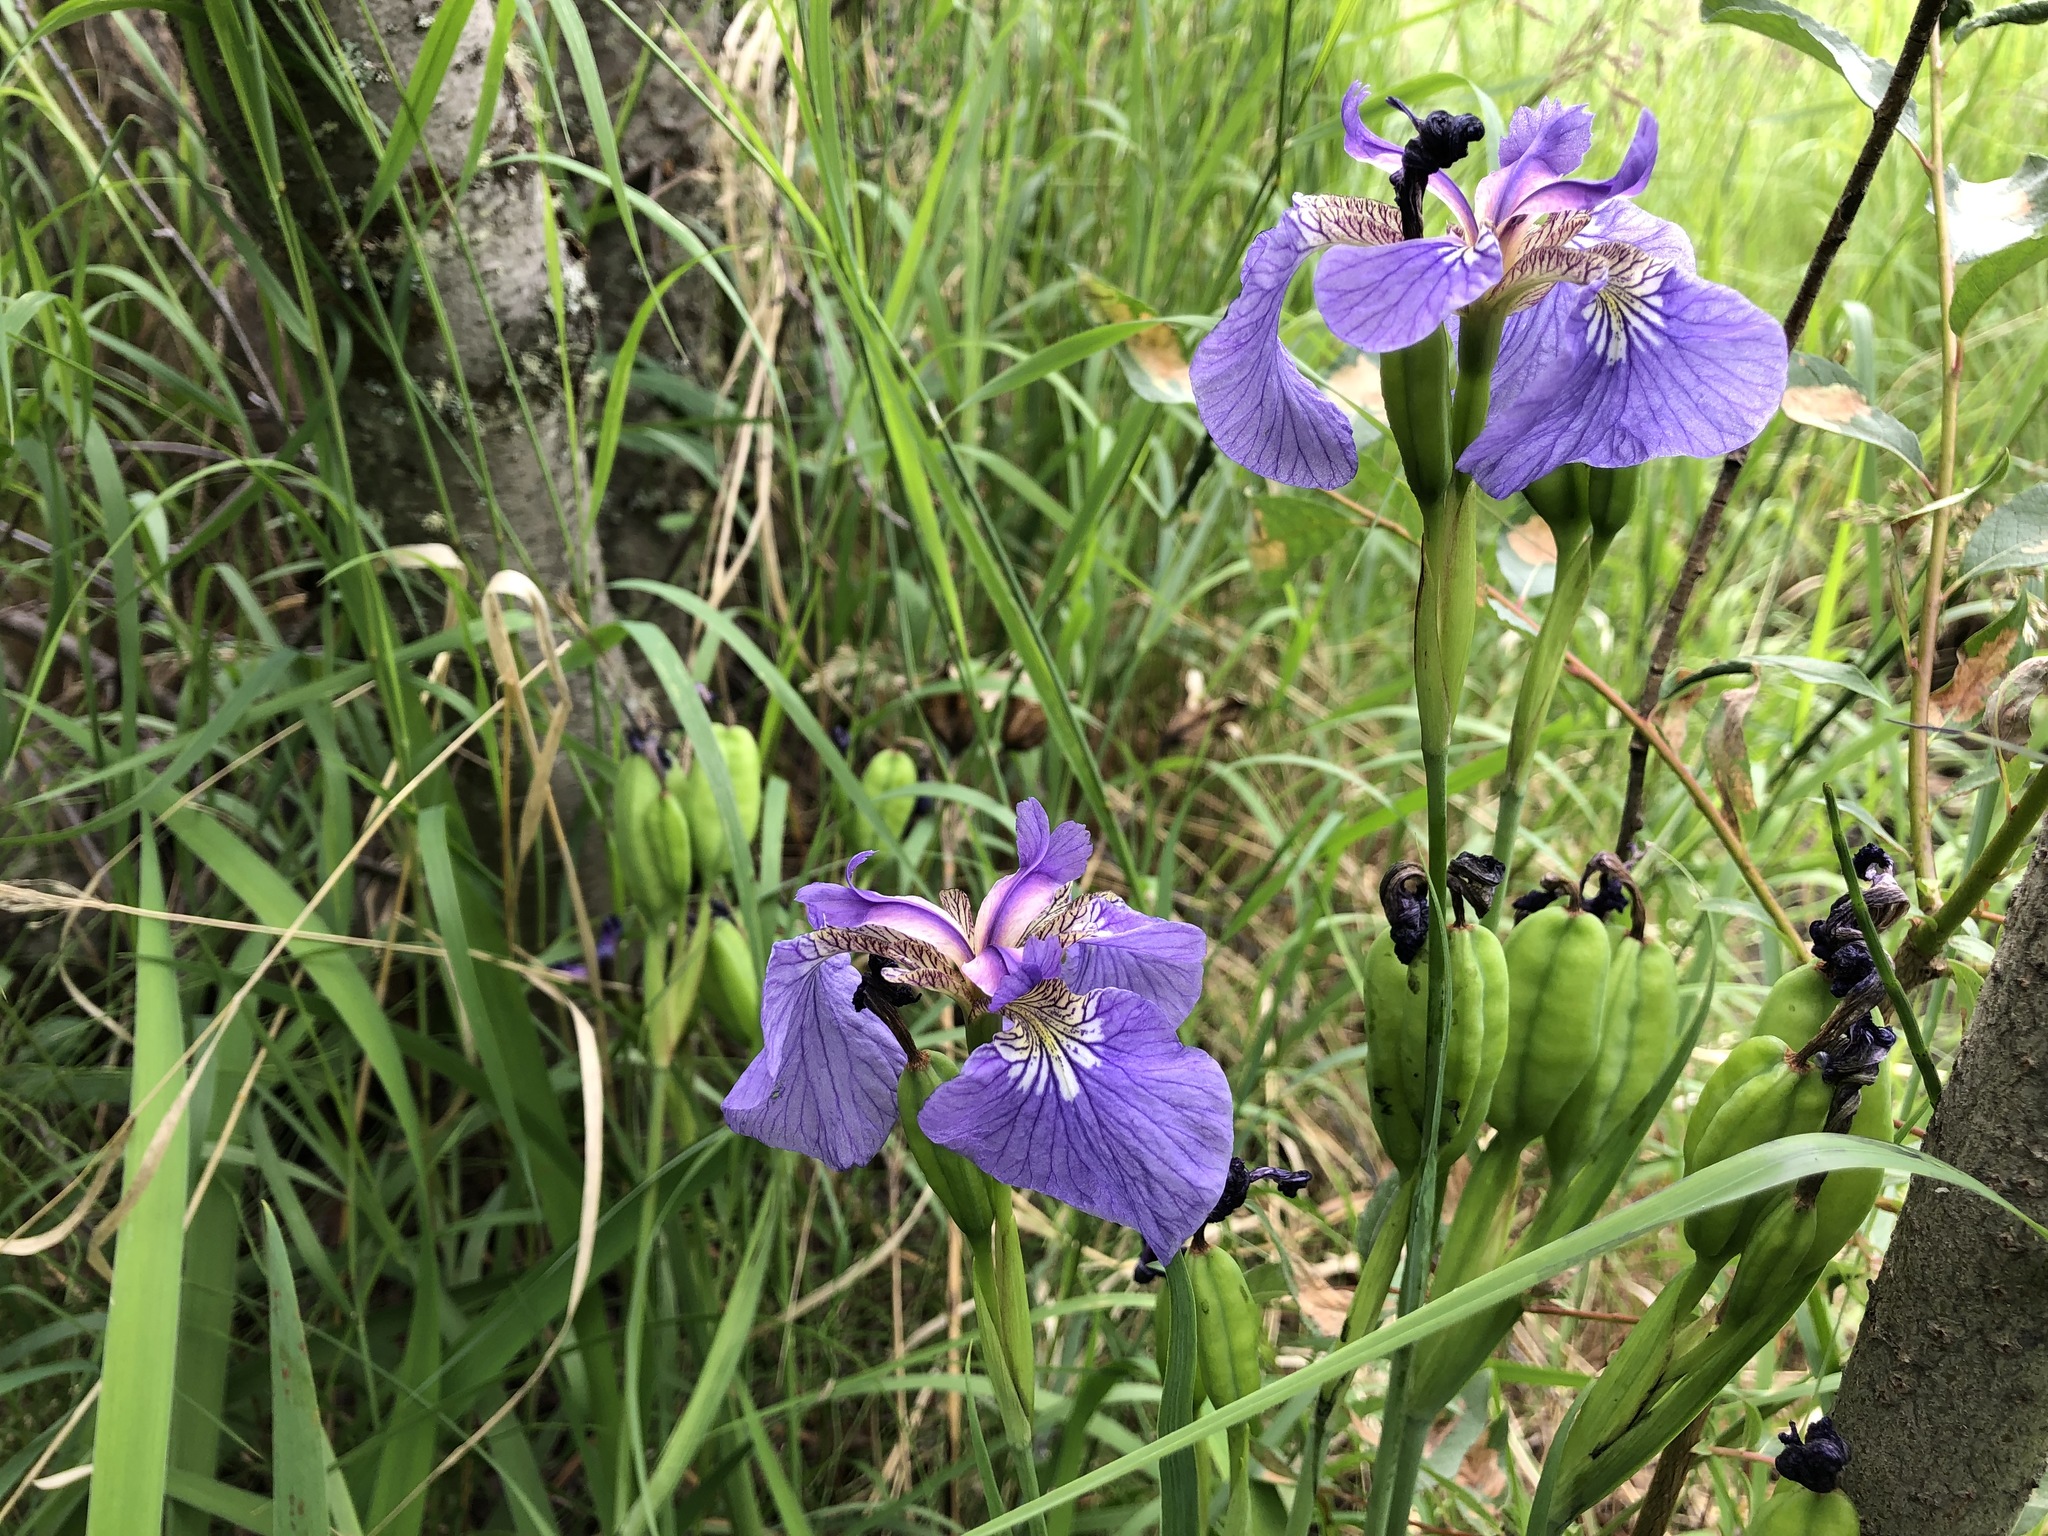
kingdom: Plantae
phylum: Tracheophyta
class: Liliopsida
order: Asparagales
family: Iridaceae
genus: Iris
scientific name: Iris setosa
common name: Arctic blue flag
